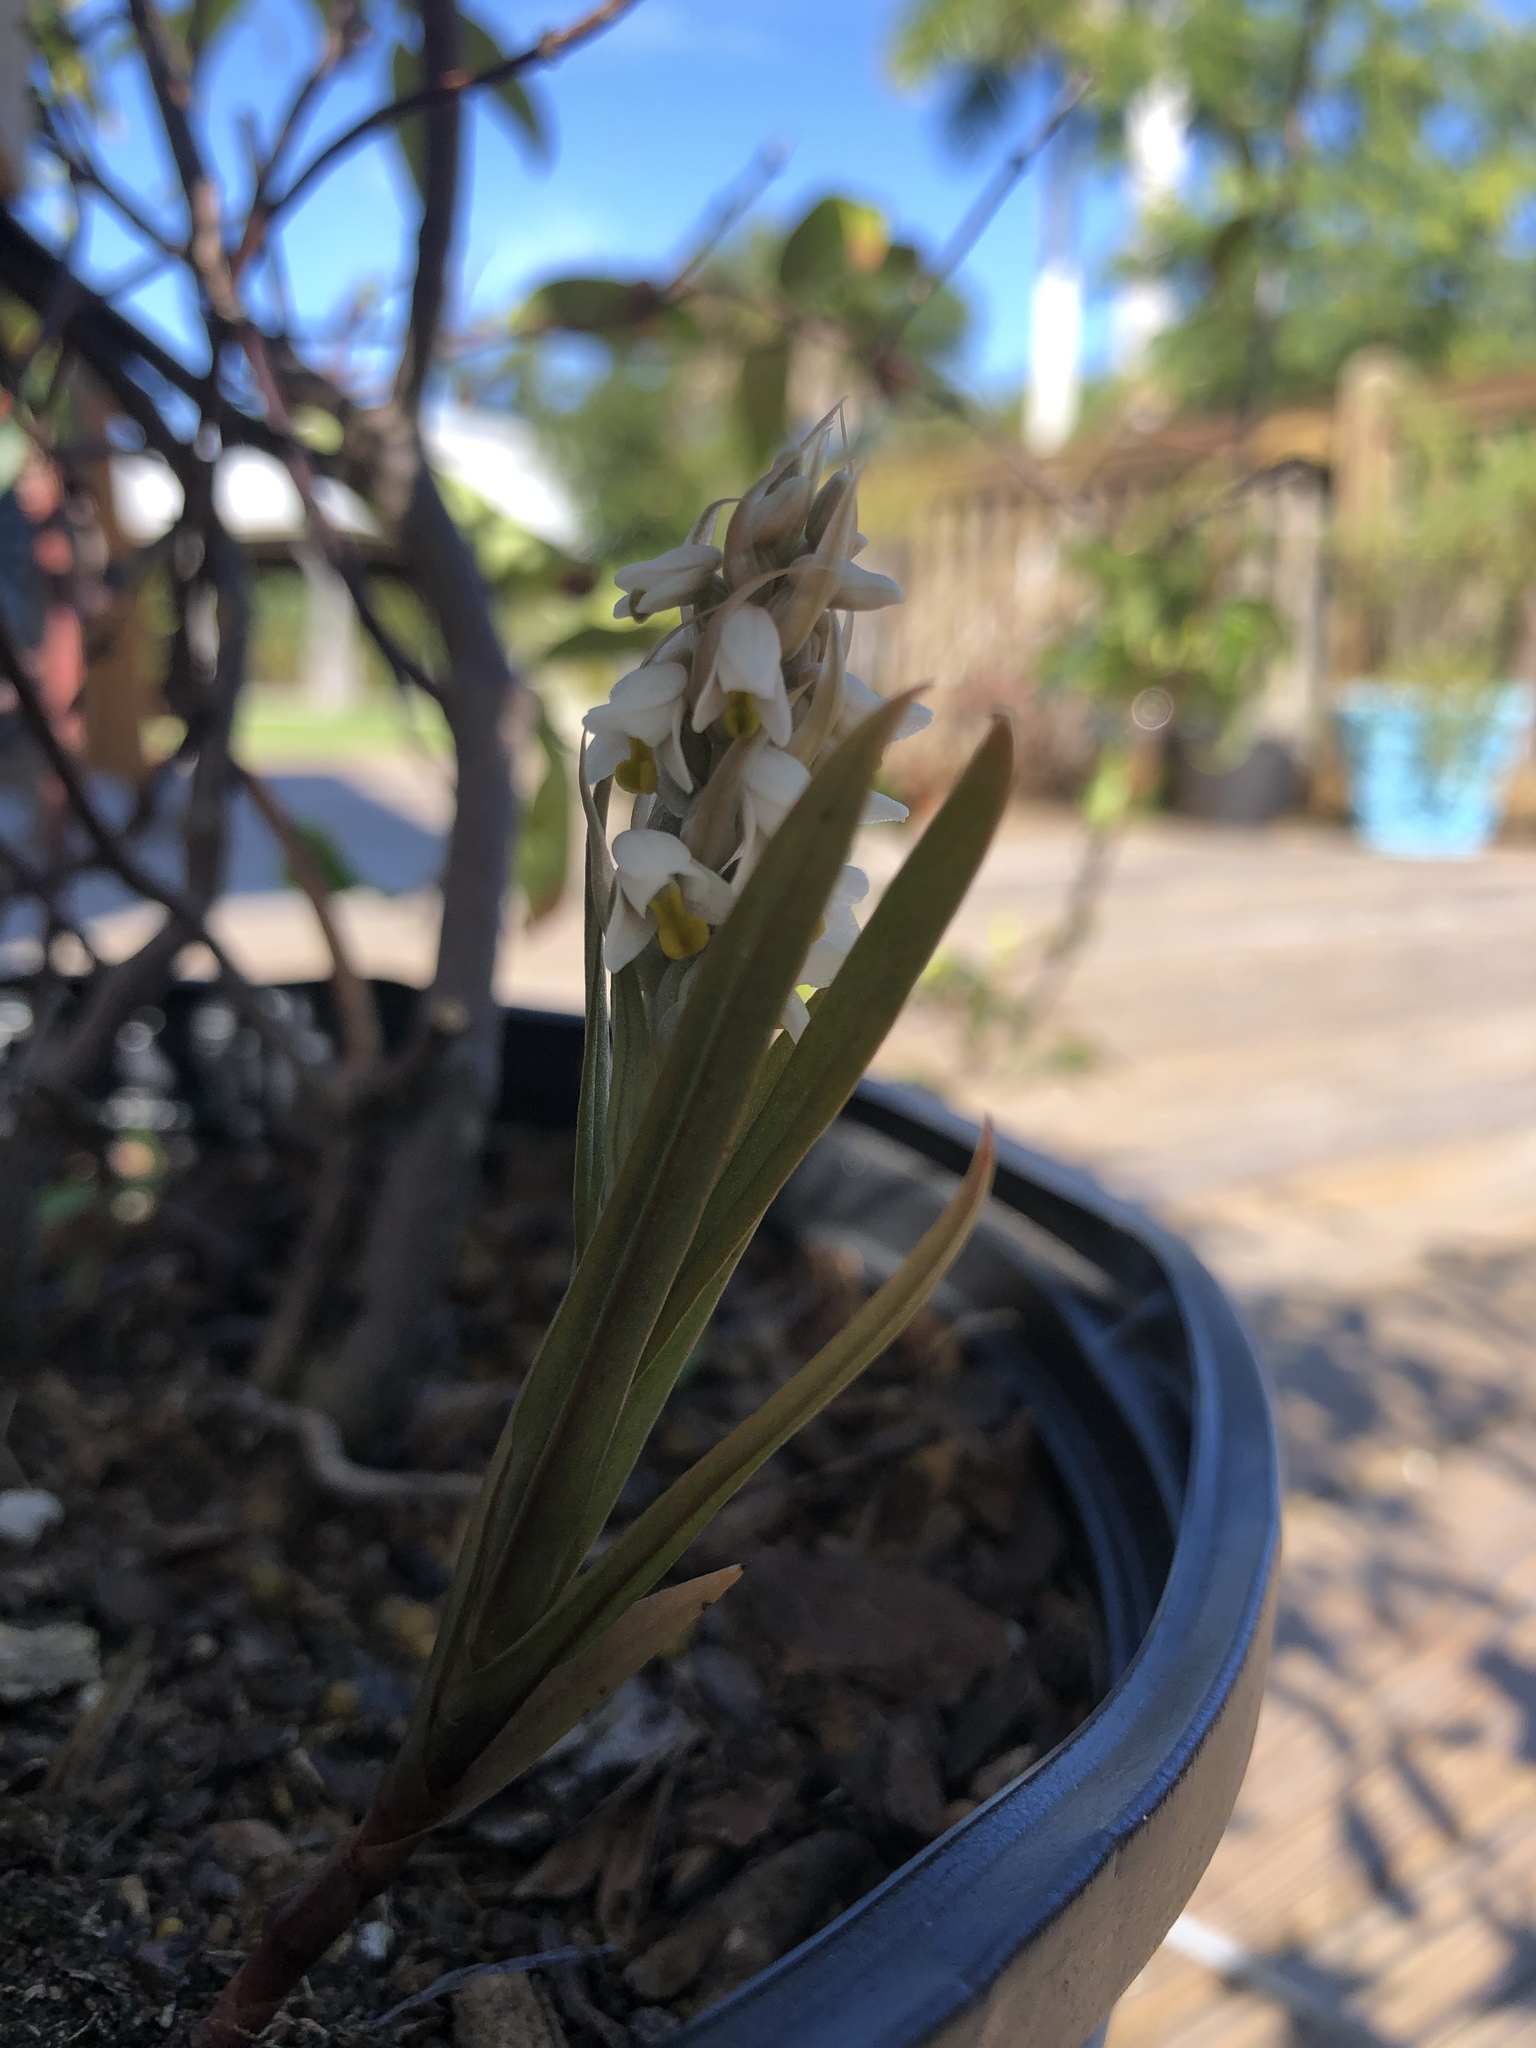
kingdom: Plantae
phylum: Tracheophyta
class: Liliopsida
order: Asparagales
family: Orchidaceae
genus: Zeuxine
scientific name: Zeuxine strateumatica
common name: Soldier's orchid
